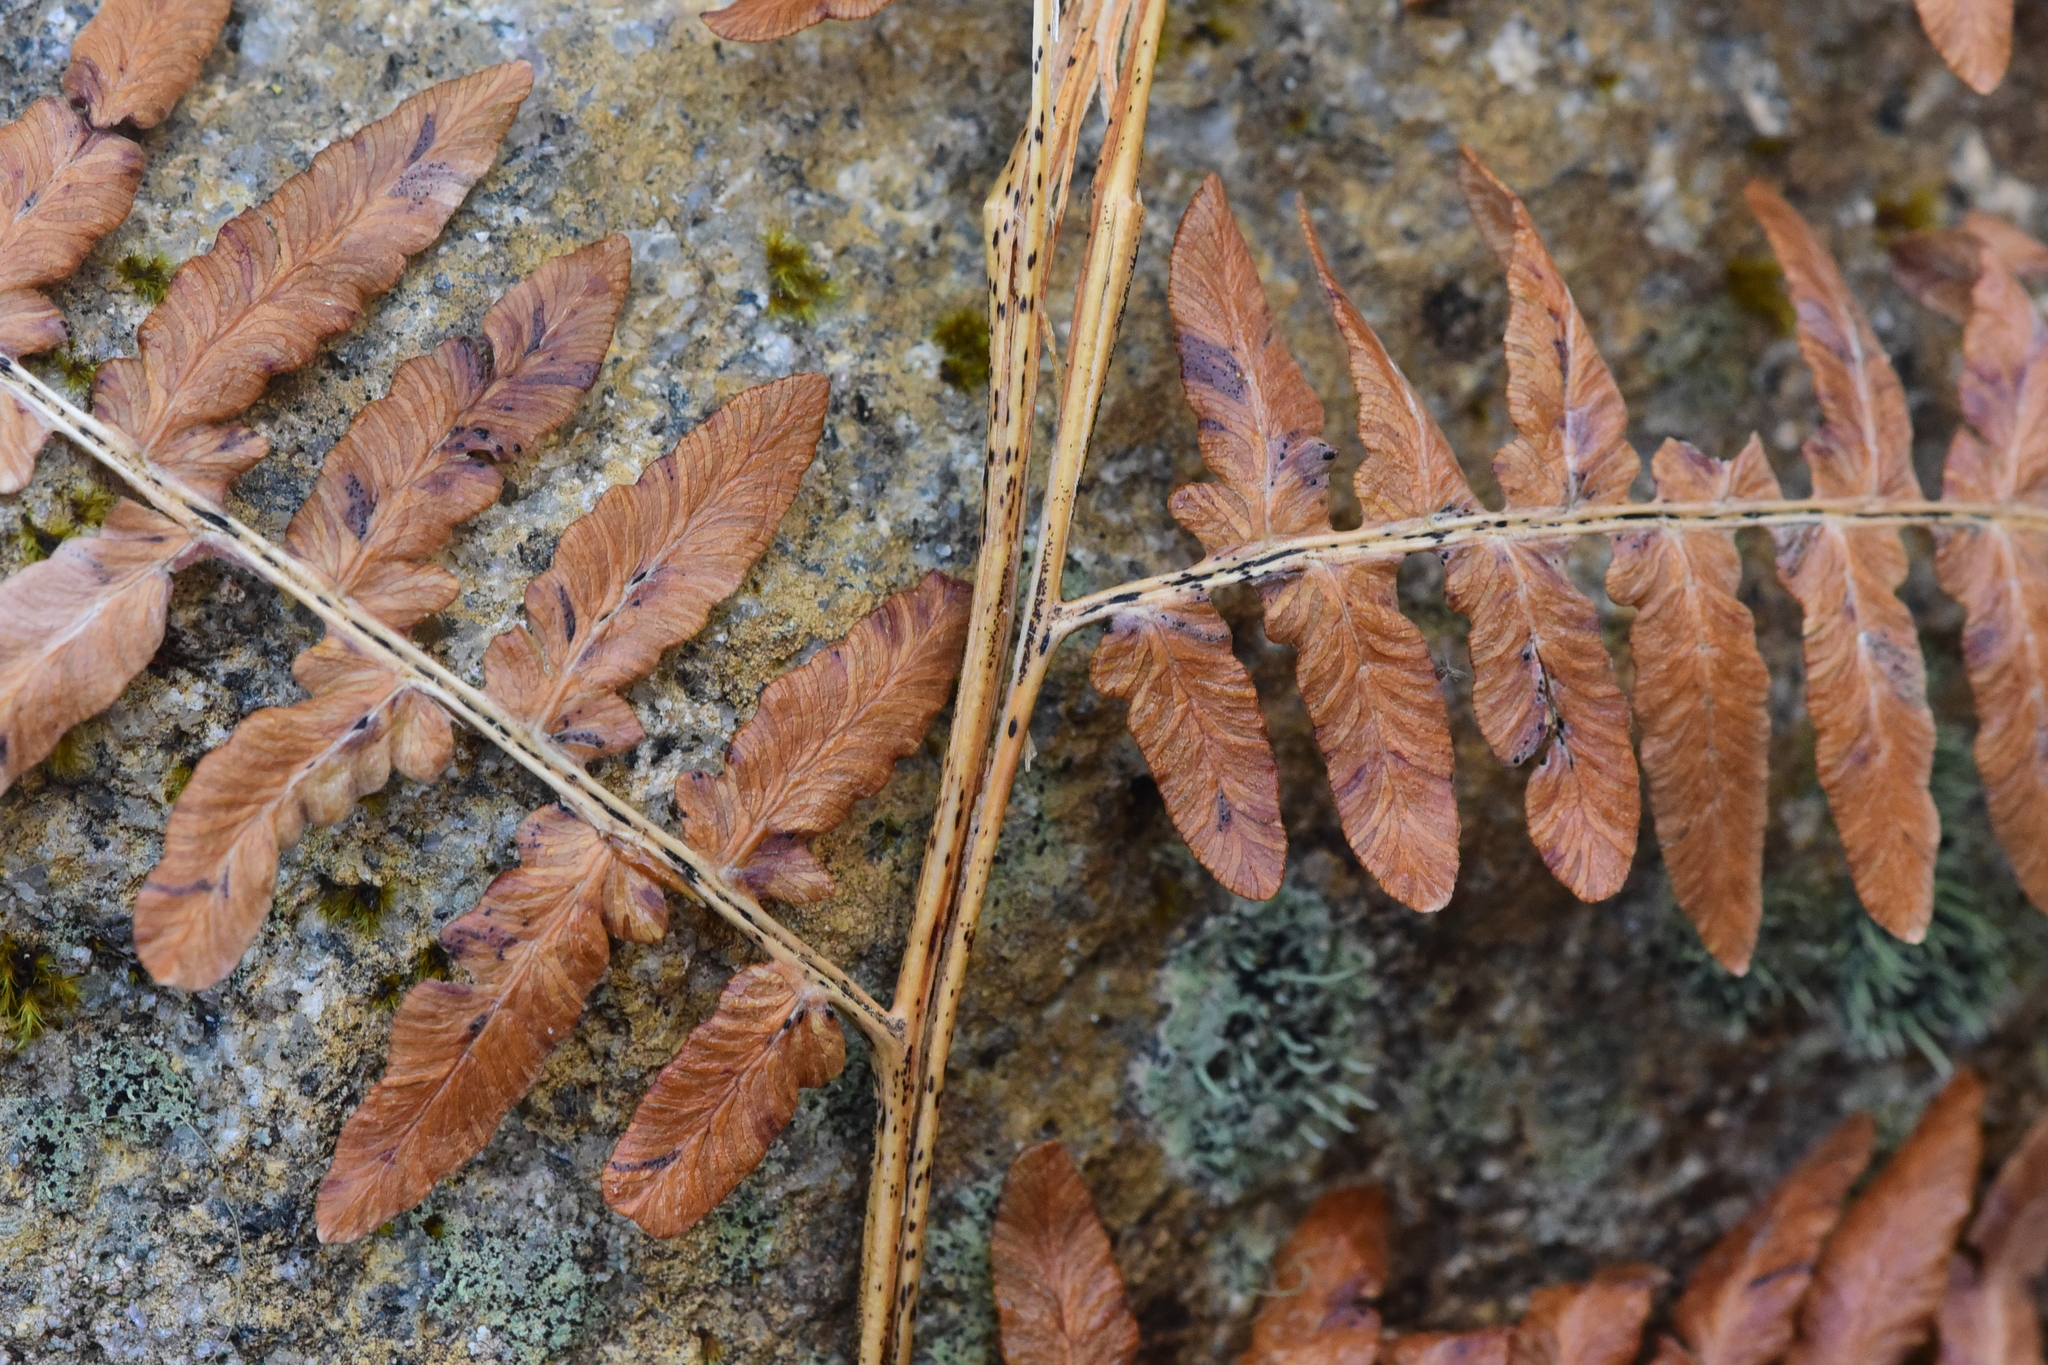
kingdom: Plantae
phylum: Tracheophyta
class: Polypodiopsida
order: Polypodiales
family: Dennstaedtiaceae
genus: Pteridium
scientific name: Pteridium aquilinum
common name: Bracken
